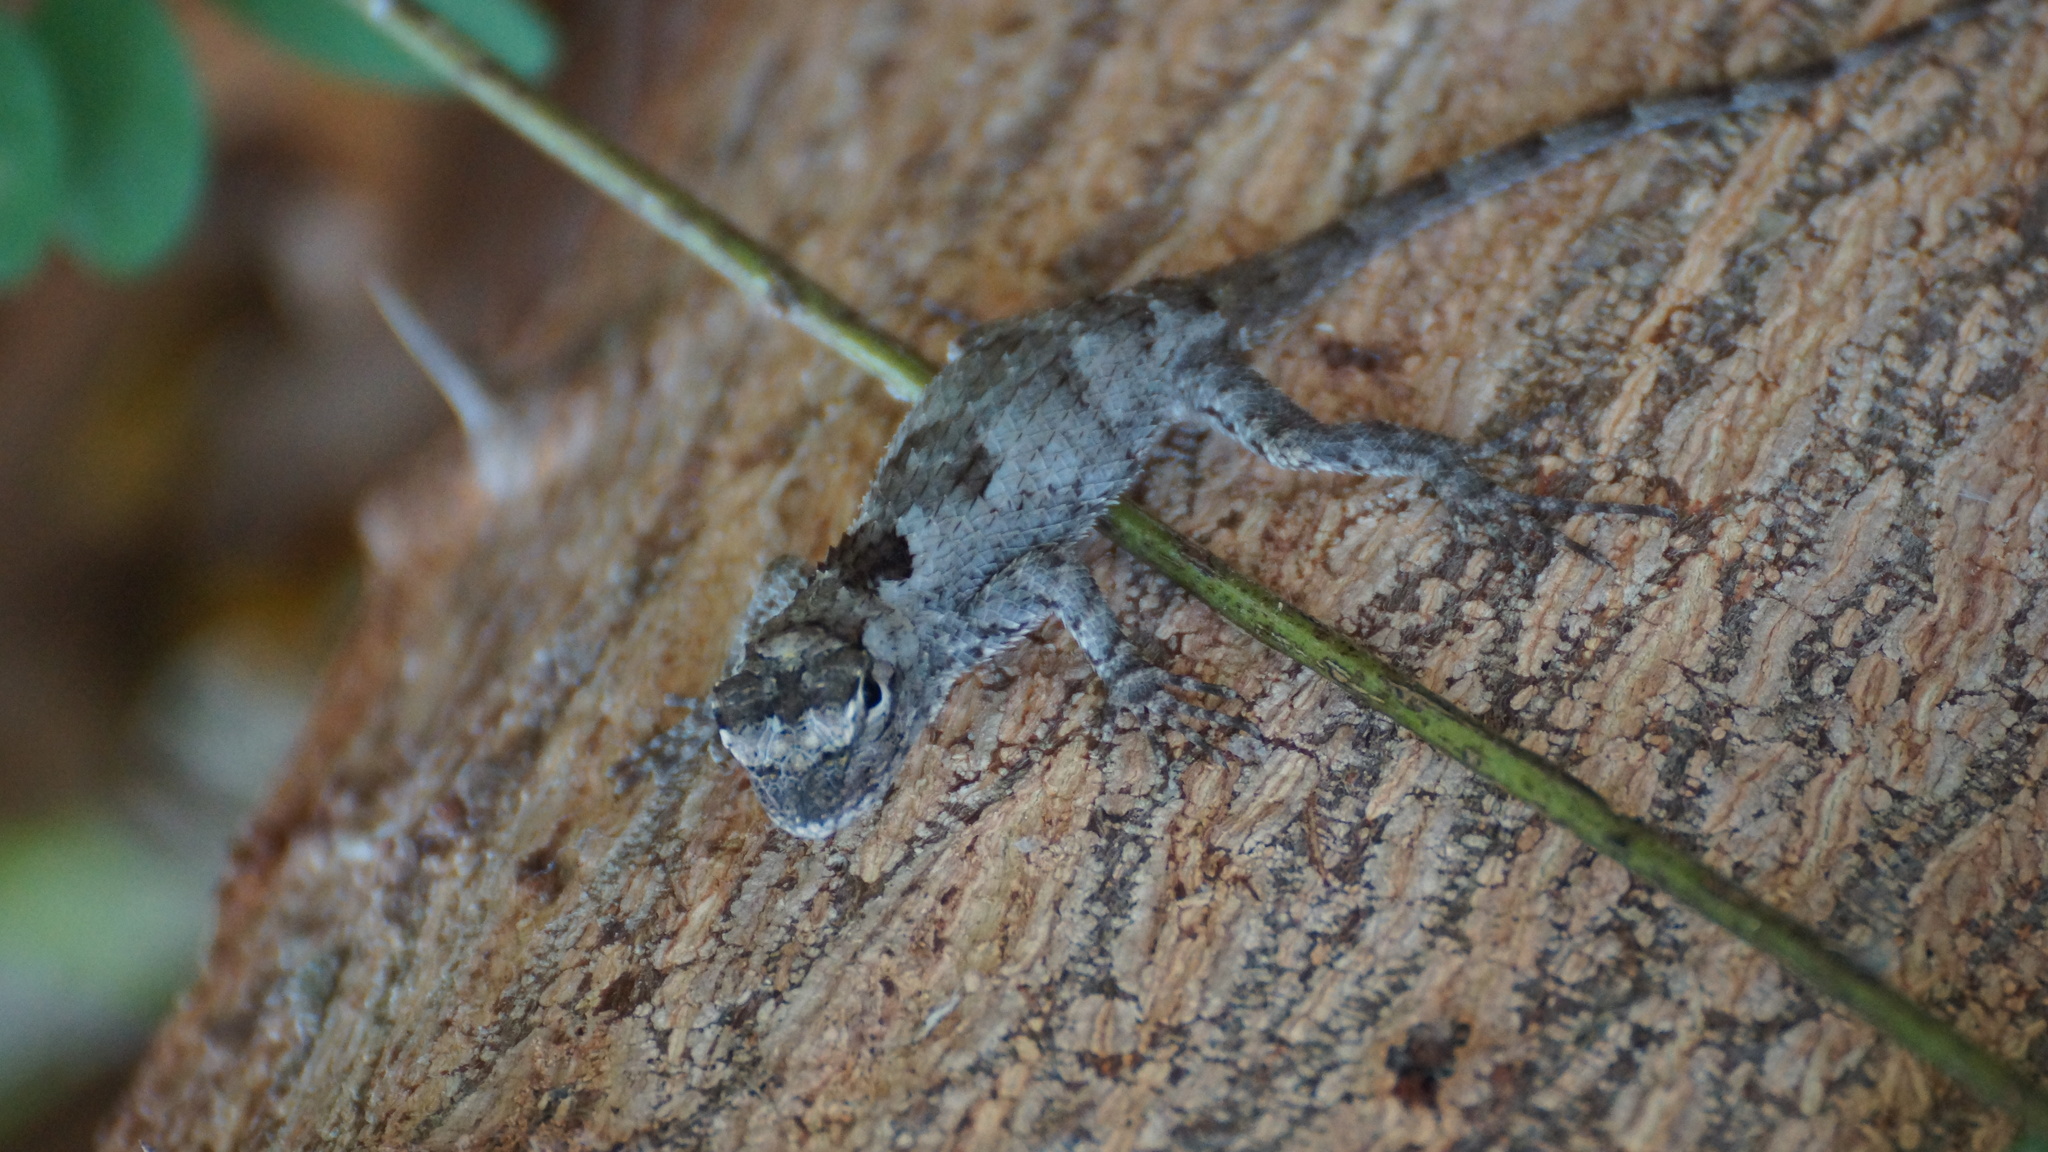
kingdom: Animalia
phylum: Chordata
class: Squamata
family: Phrynosomatidae
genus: Sceloporus
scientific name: Sceloporus melanorhinus
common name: Black-nosed lizard
